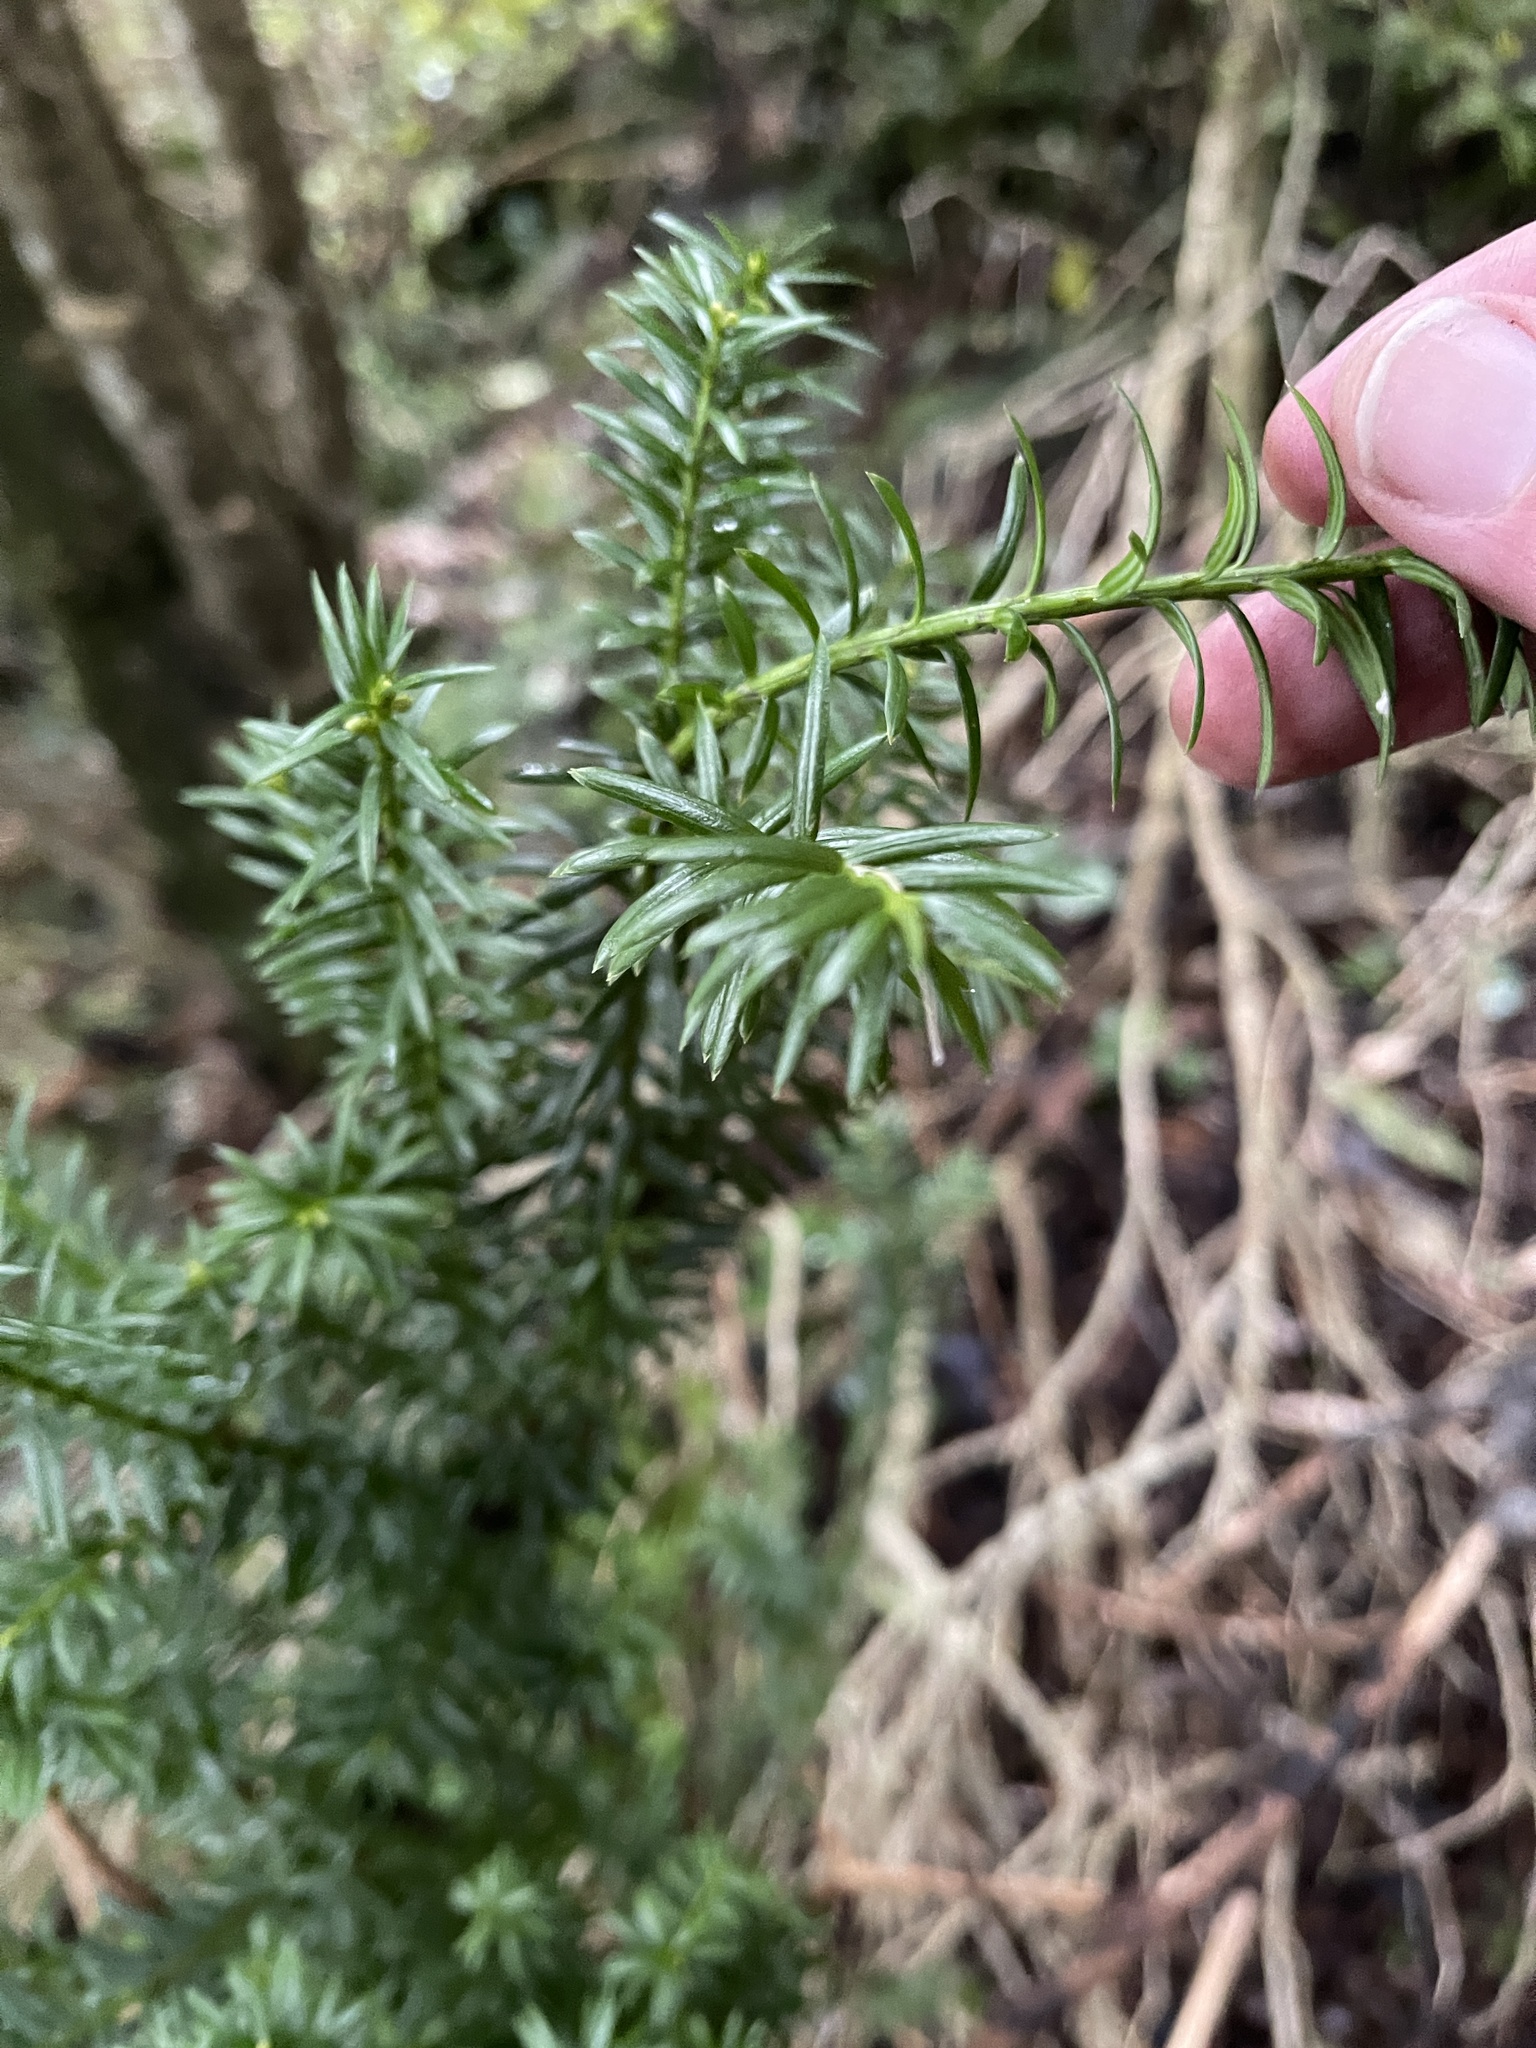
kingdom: Plantae
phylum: Tracheophyta
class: Pinopsida
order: Pinales
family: Podocarpaceae
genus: Prumnopitys
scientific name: Prumnopitys taxifolia
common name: Matai
